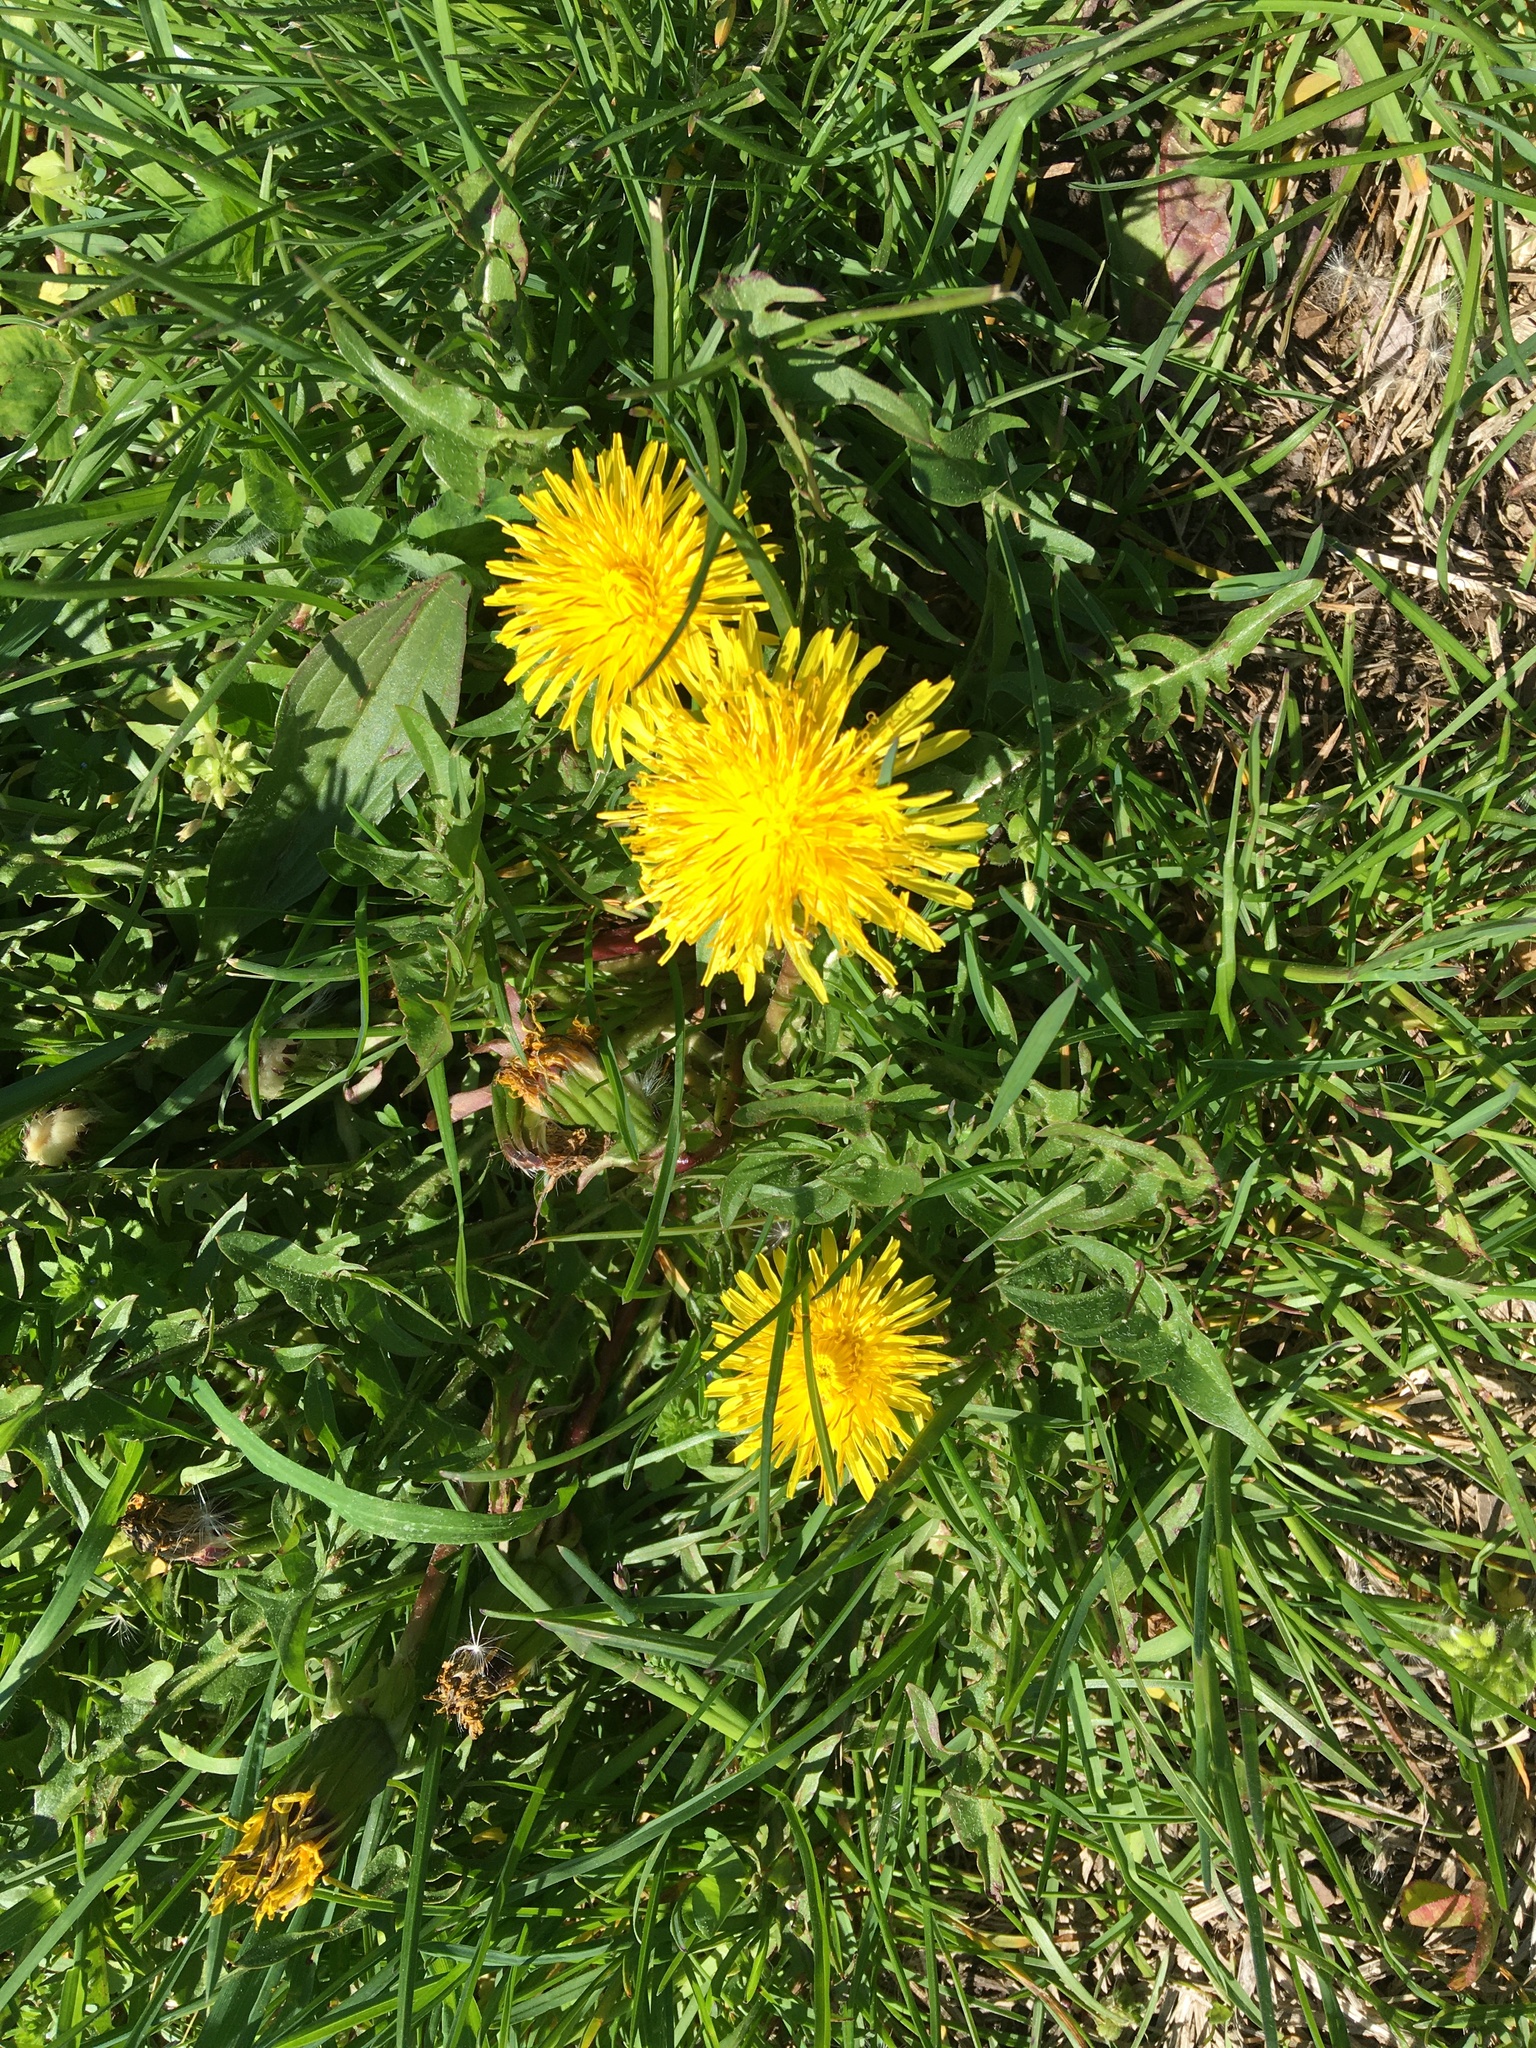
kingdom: Plantae
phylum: Tracheophyta
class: Magnoliopsida
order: Asterales
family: Asteraceae
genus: Taraxacum
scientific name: Taraxacum officinale
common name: Common dandelion
